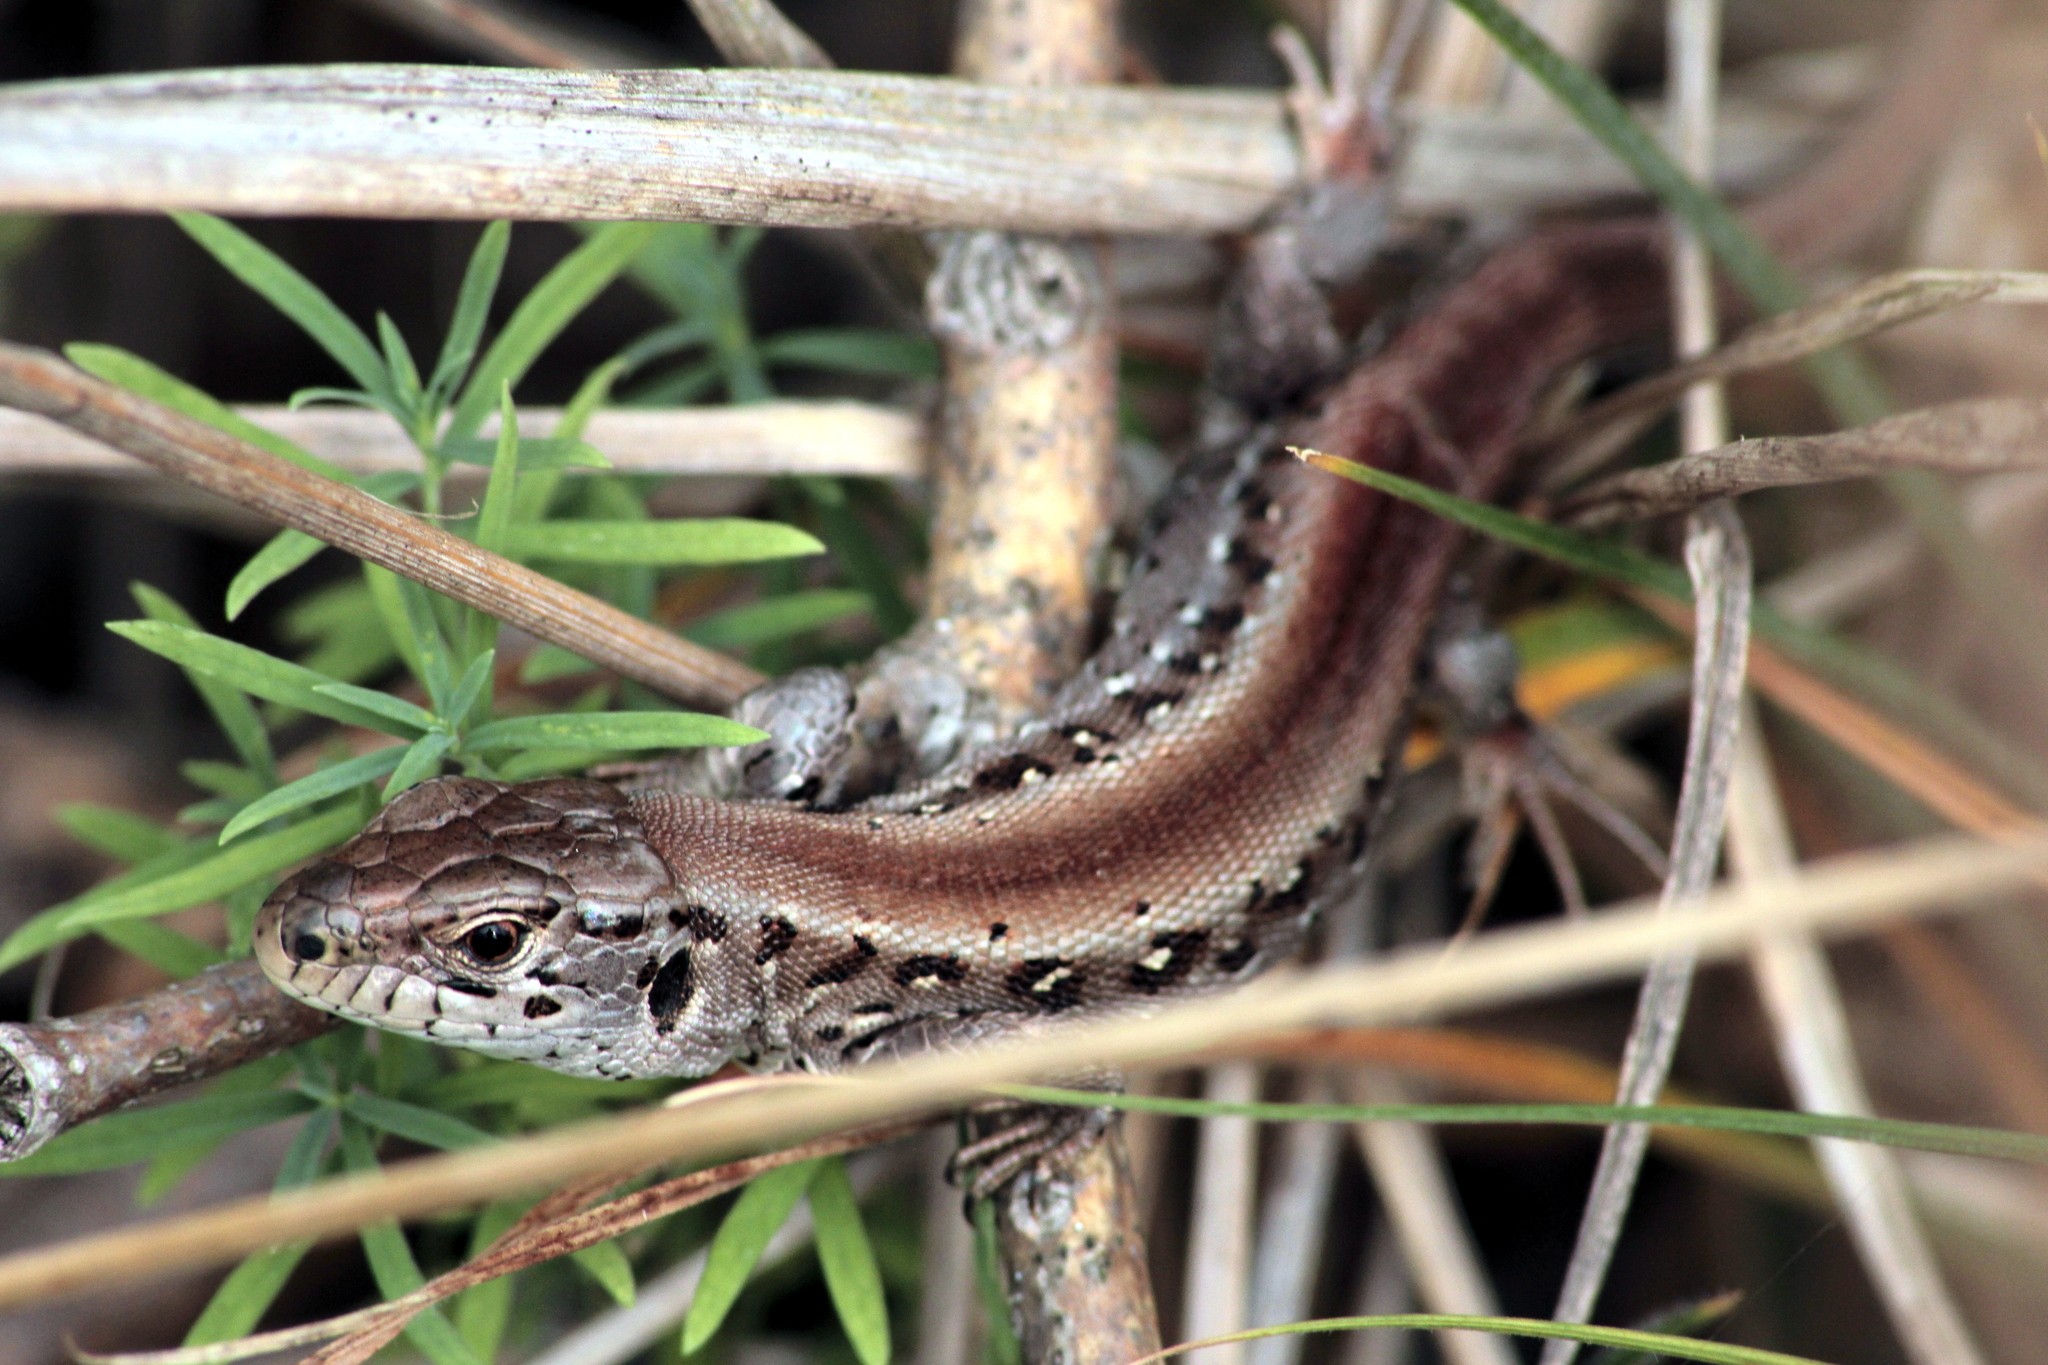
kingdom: Animalia
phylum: Chordata
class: Squamata
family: Lacertidae
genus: Lacerta
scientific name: Lacerta agilis
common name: Sand lizard
